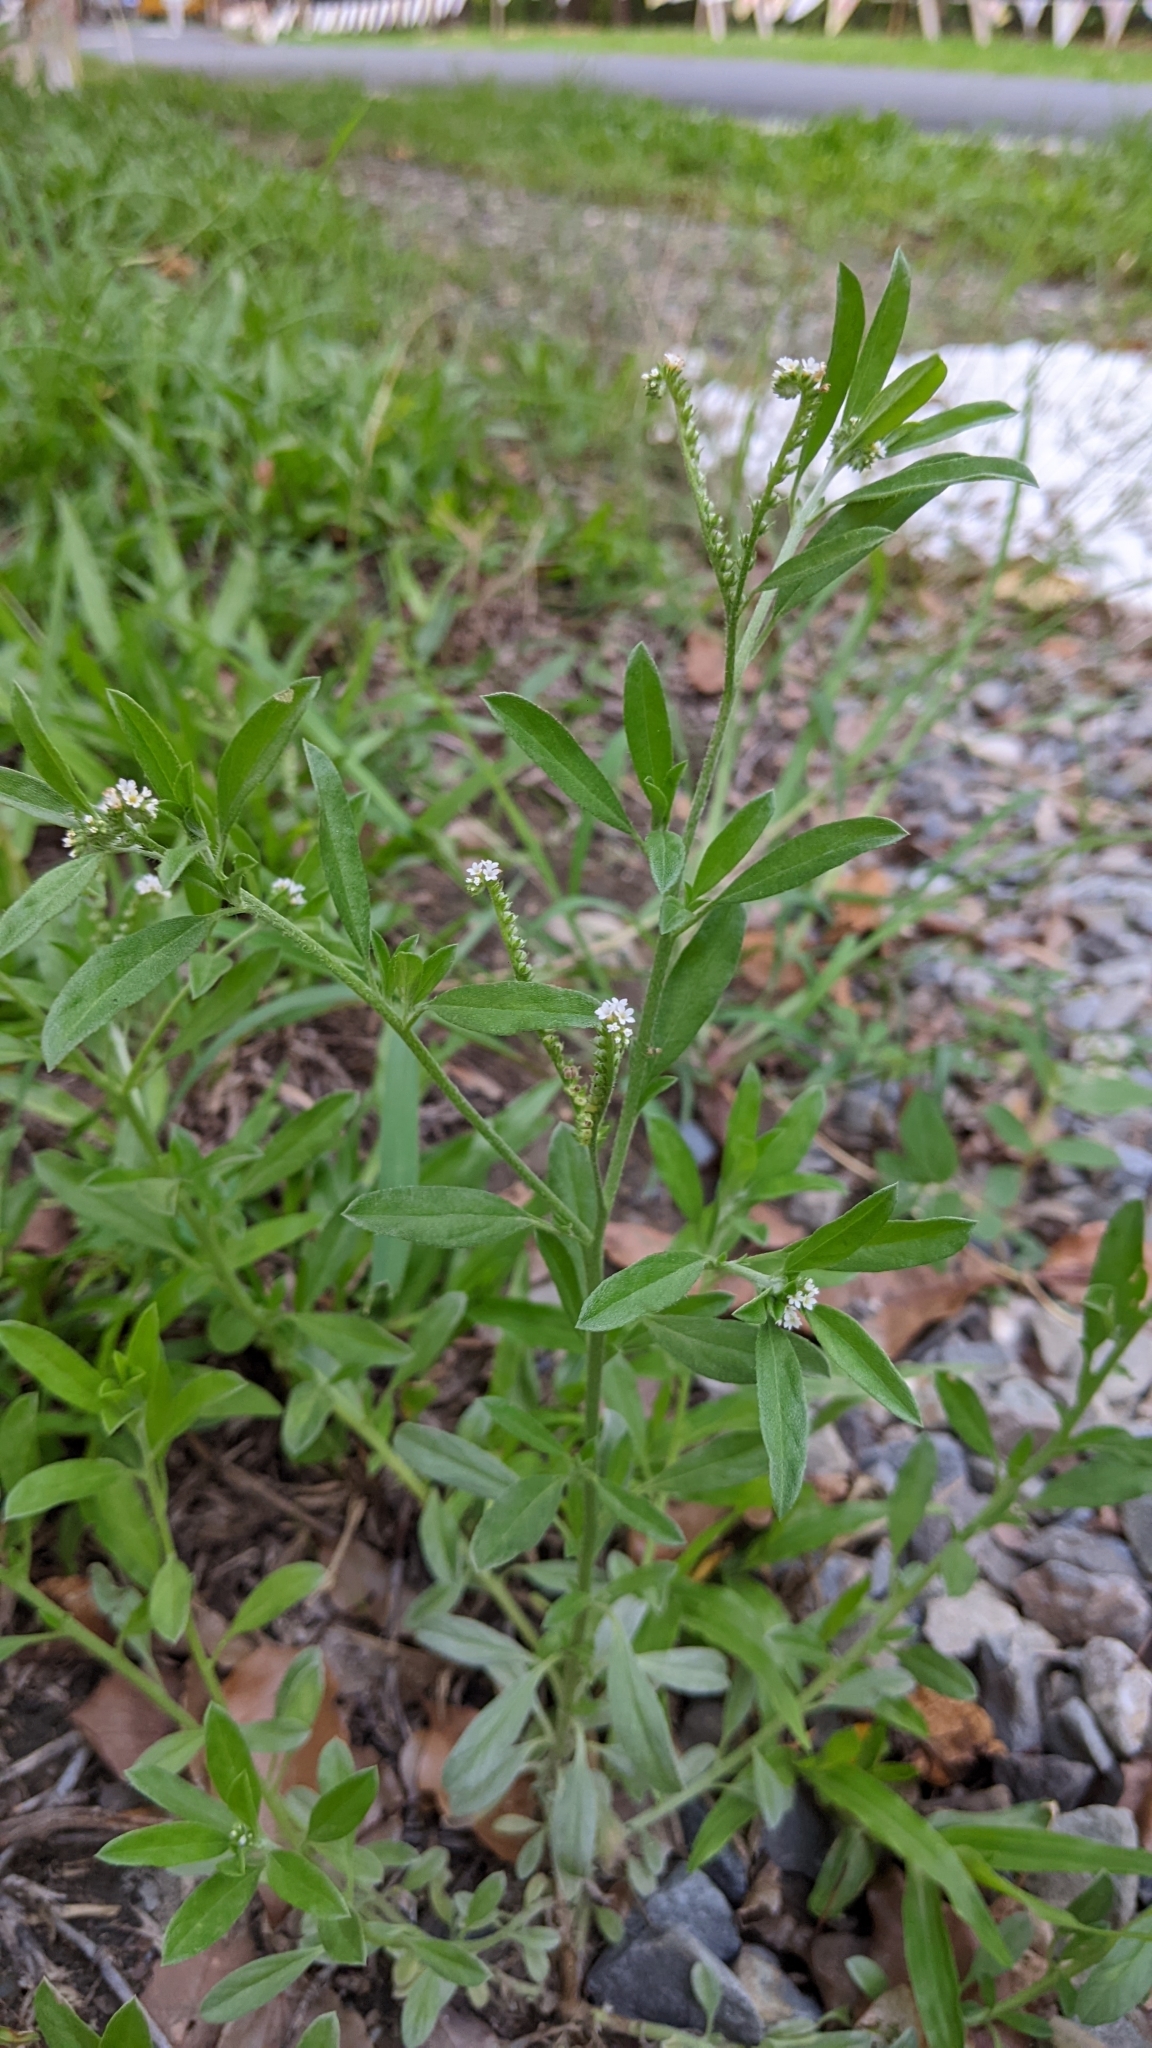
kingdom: Plantae
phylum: Tracheophyta
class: Magnoliopsida
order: Boraginales
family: Heliotropiaceae
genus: Euploca
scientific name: Euploca procumbens
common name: Fourspike heliotrope
